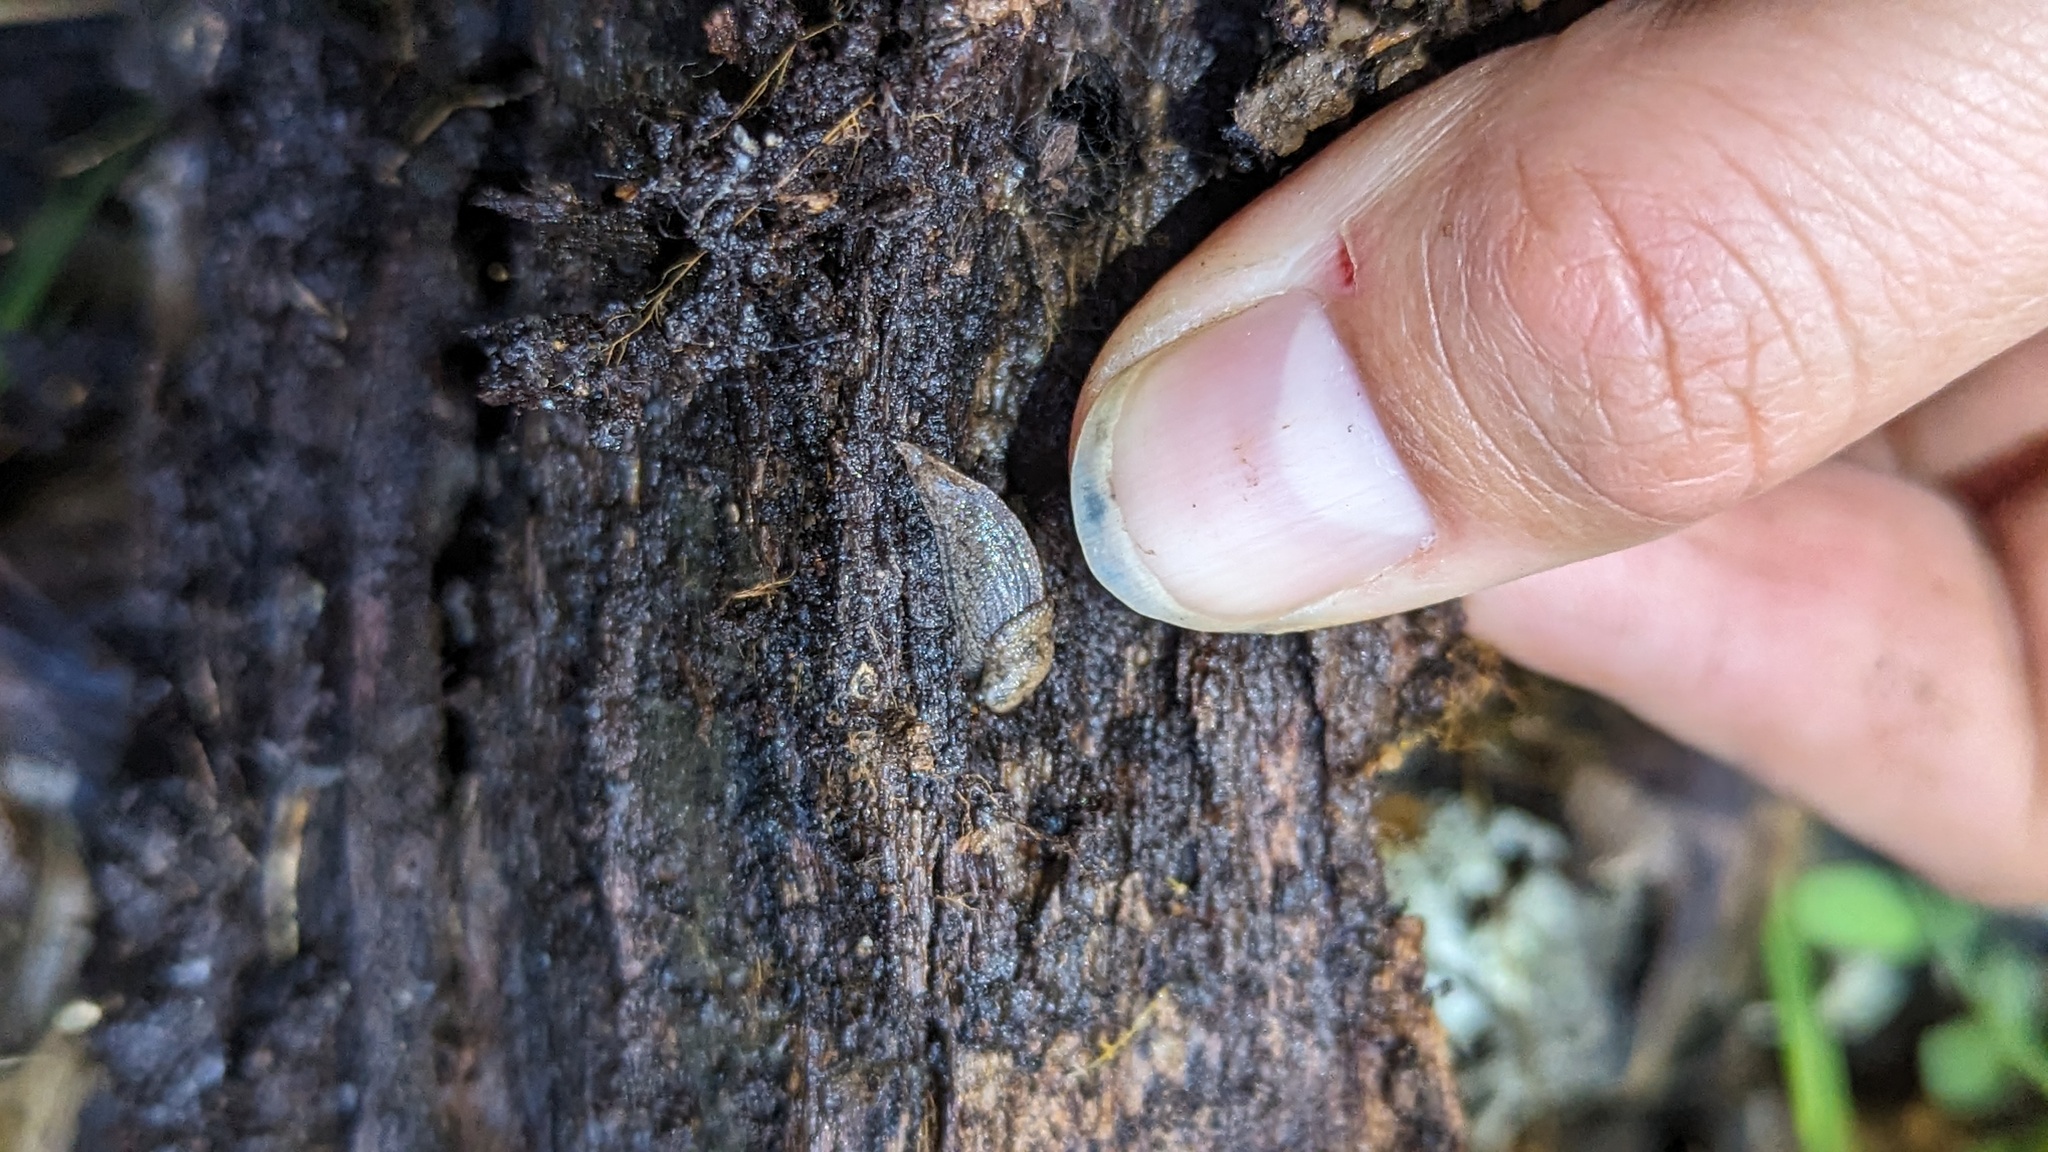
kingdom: Animalia
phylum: Mollusca
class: Gastropoda
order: Stylommatophora
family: Ariolimacidae
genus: Hesperarion
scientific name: Hesperarion niger
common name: Black western slug
